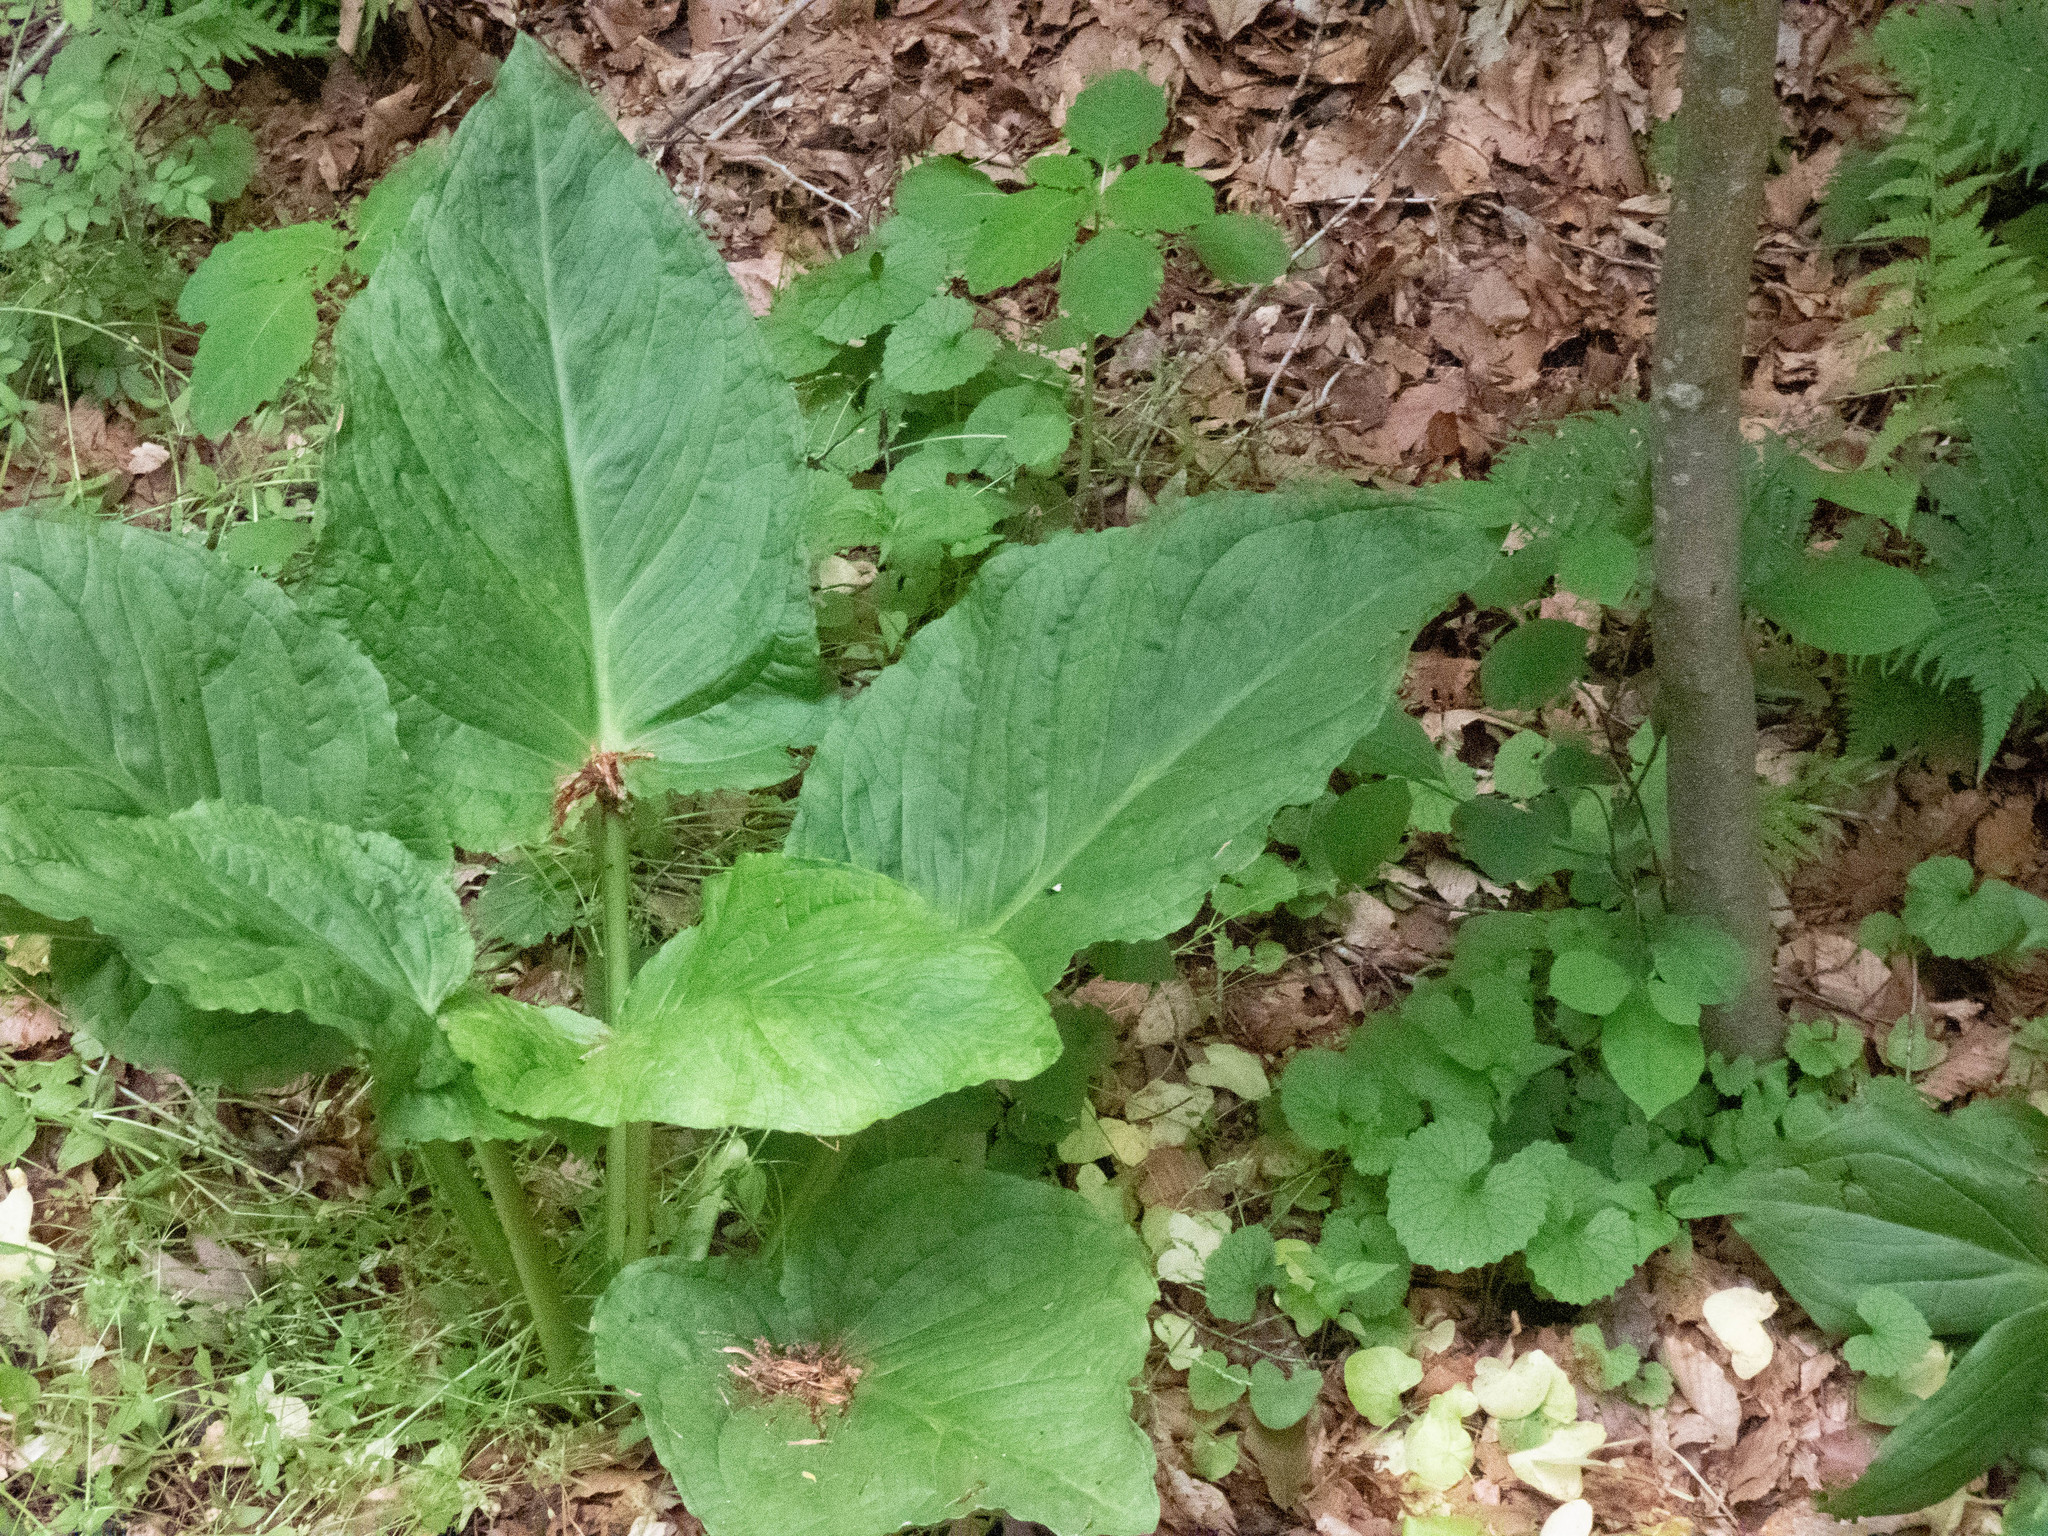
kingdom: Plantae
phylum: Tracheophyta
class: Liliopsida
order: Alismatales
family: Araceae
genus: Symplocarpus
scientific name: Symplocarpus foetidus
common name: Eastern skunk cabbage
